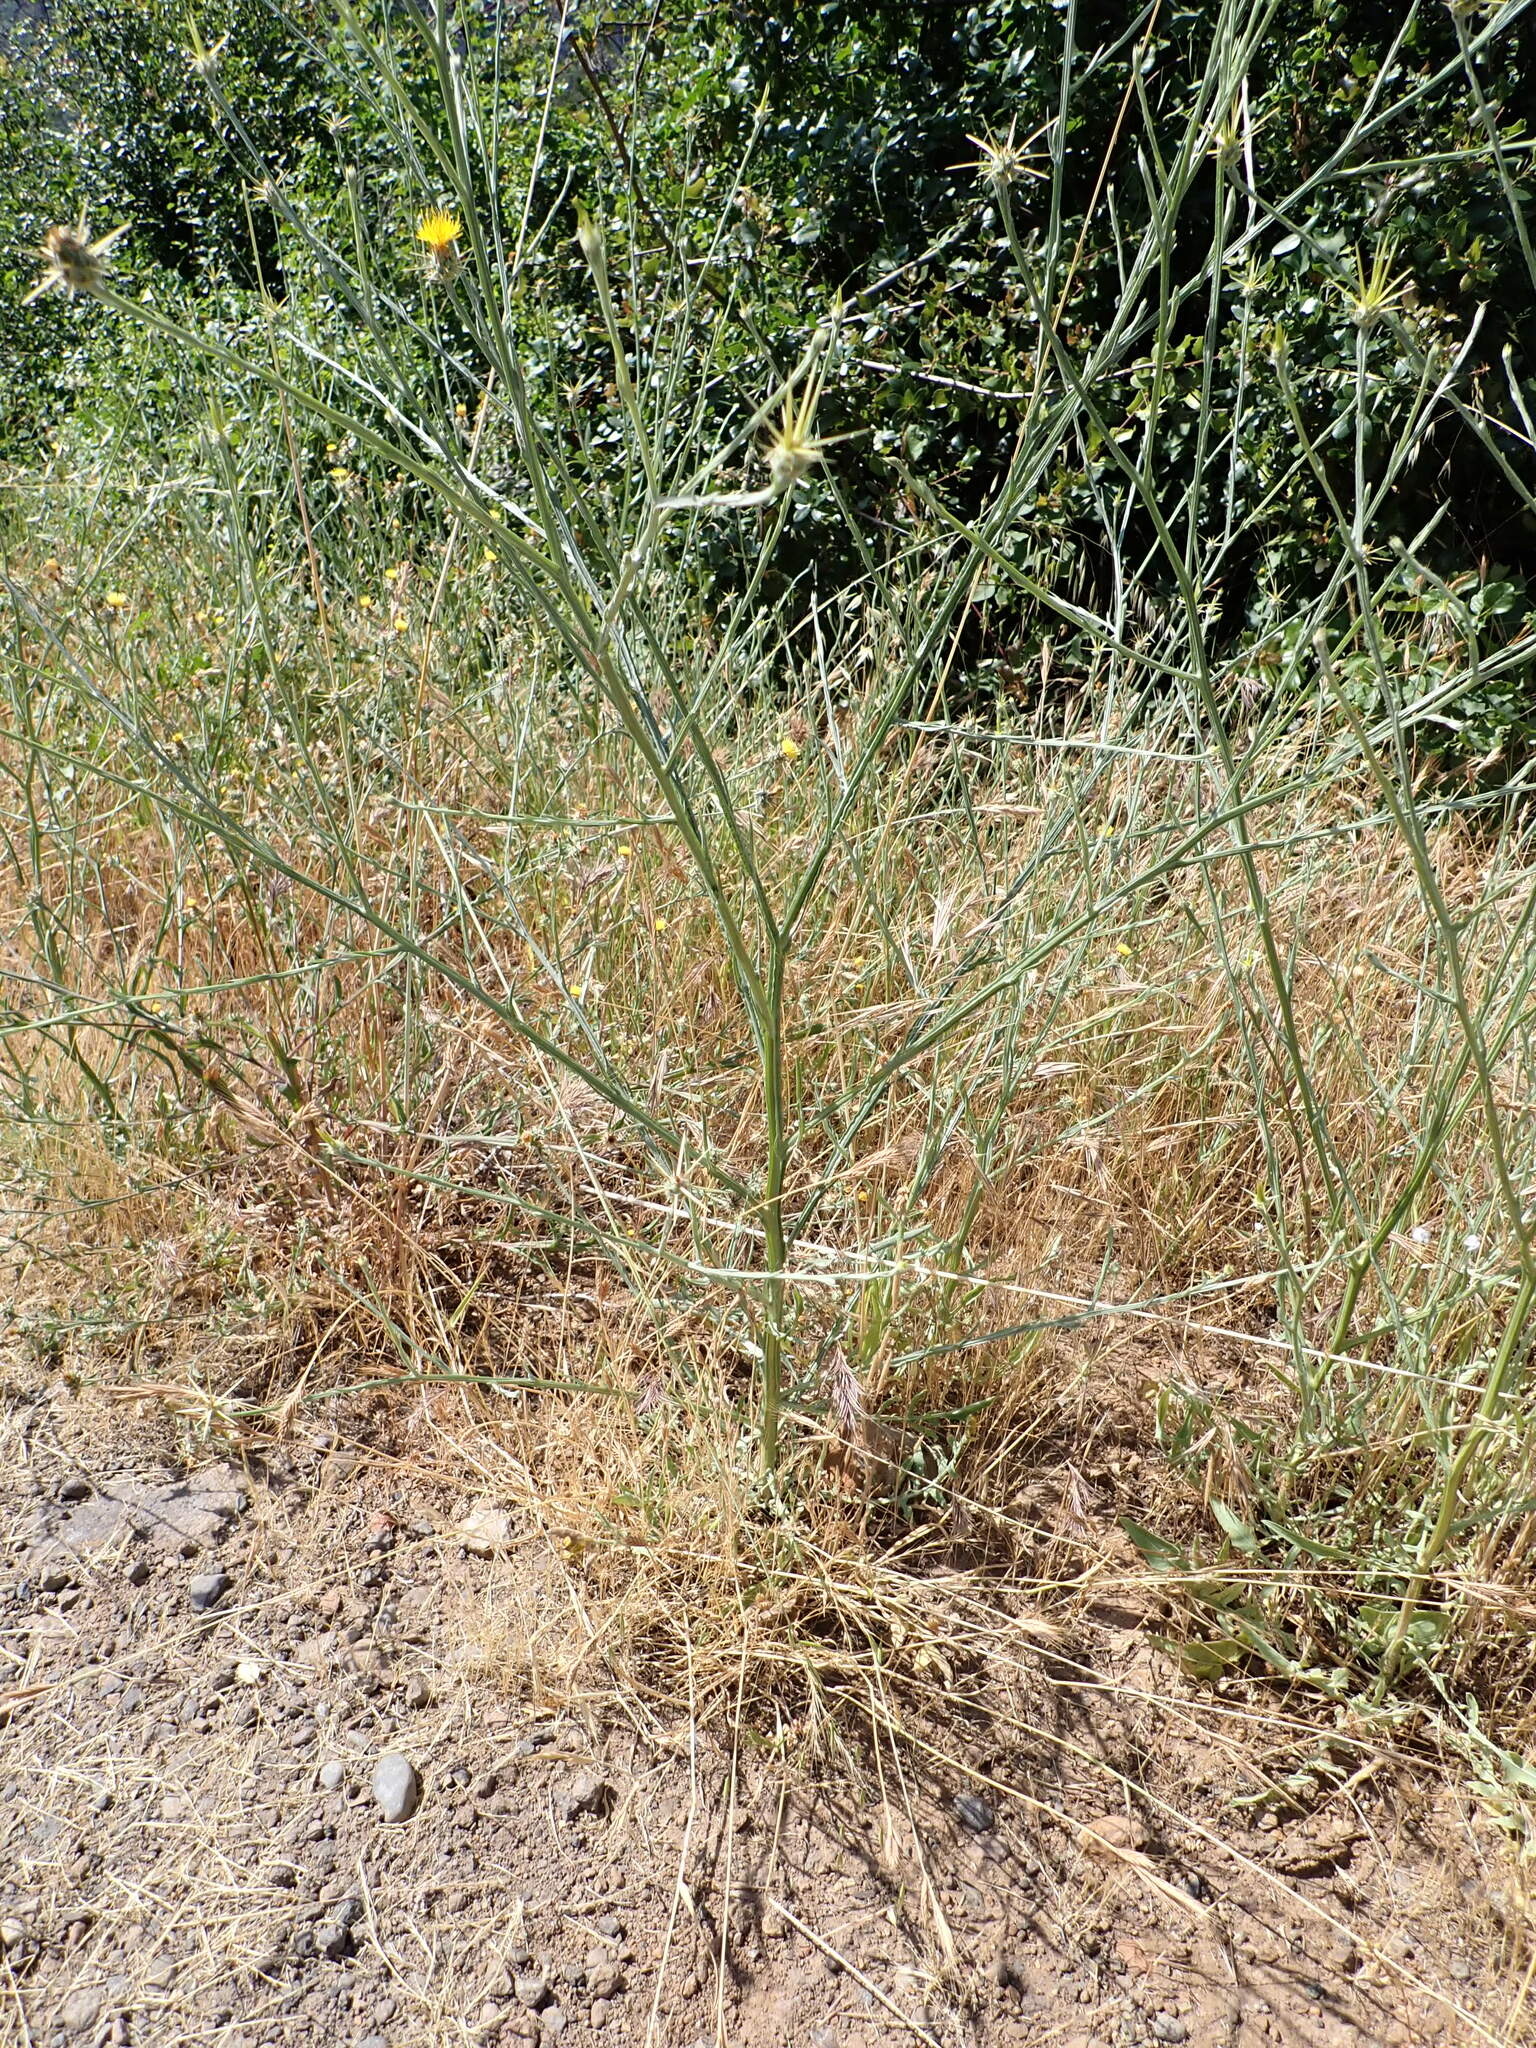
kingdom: Plantae
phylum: Tracheophyta
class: Magnoliopsida
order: Asterales
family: Asteraceae
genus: Centaurea
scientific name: Centaurea solstitialis
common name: Yellow star-thistle
